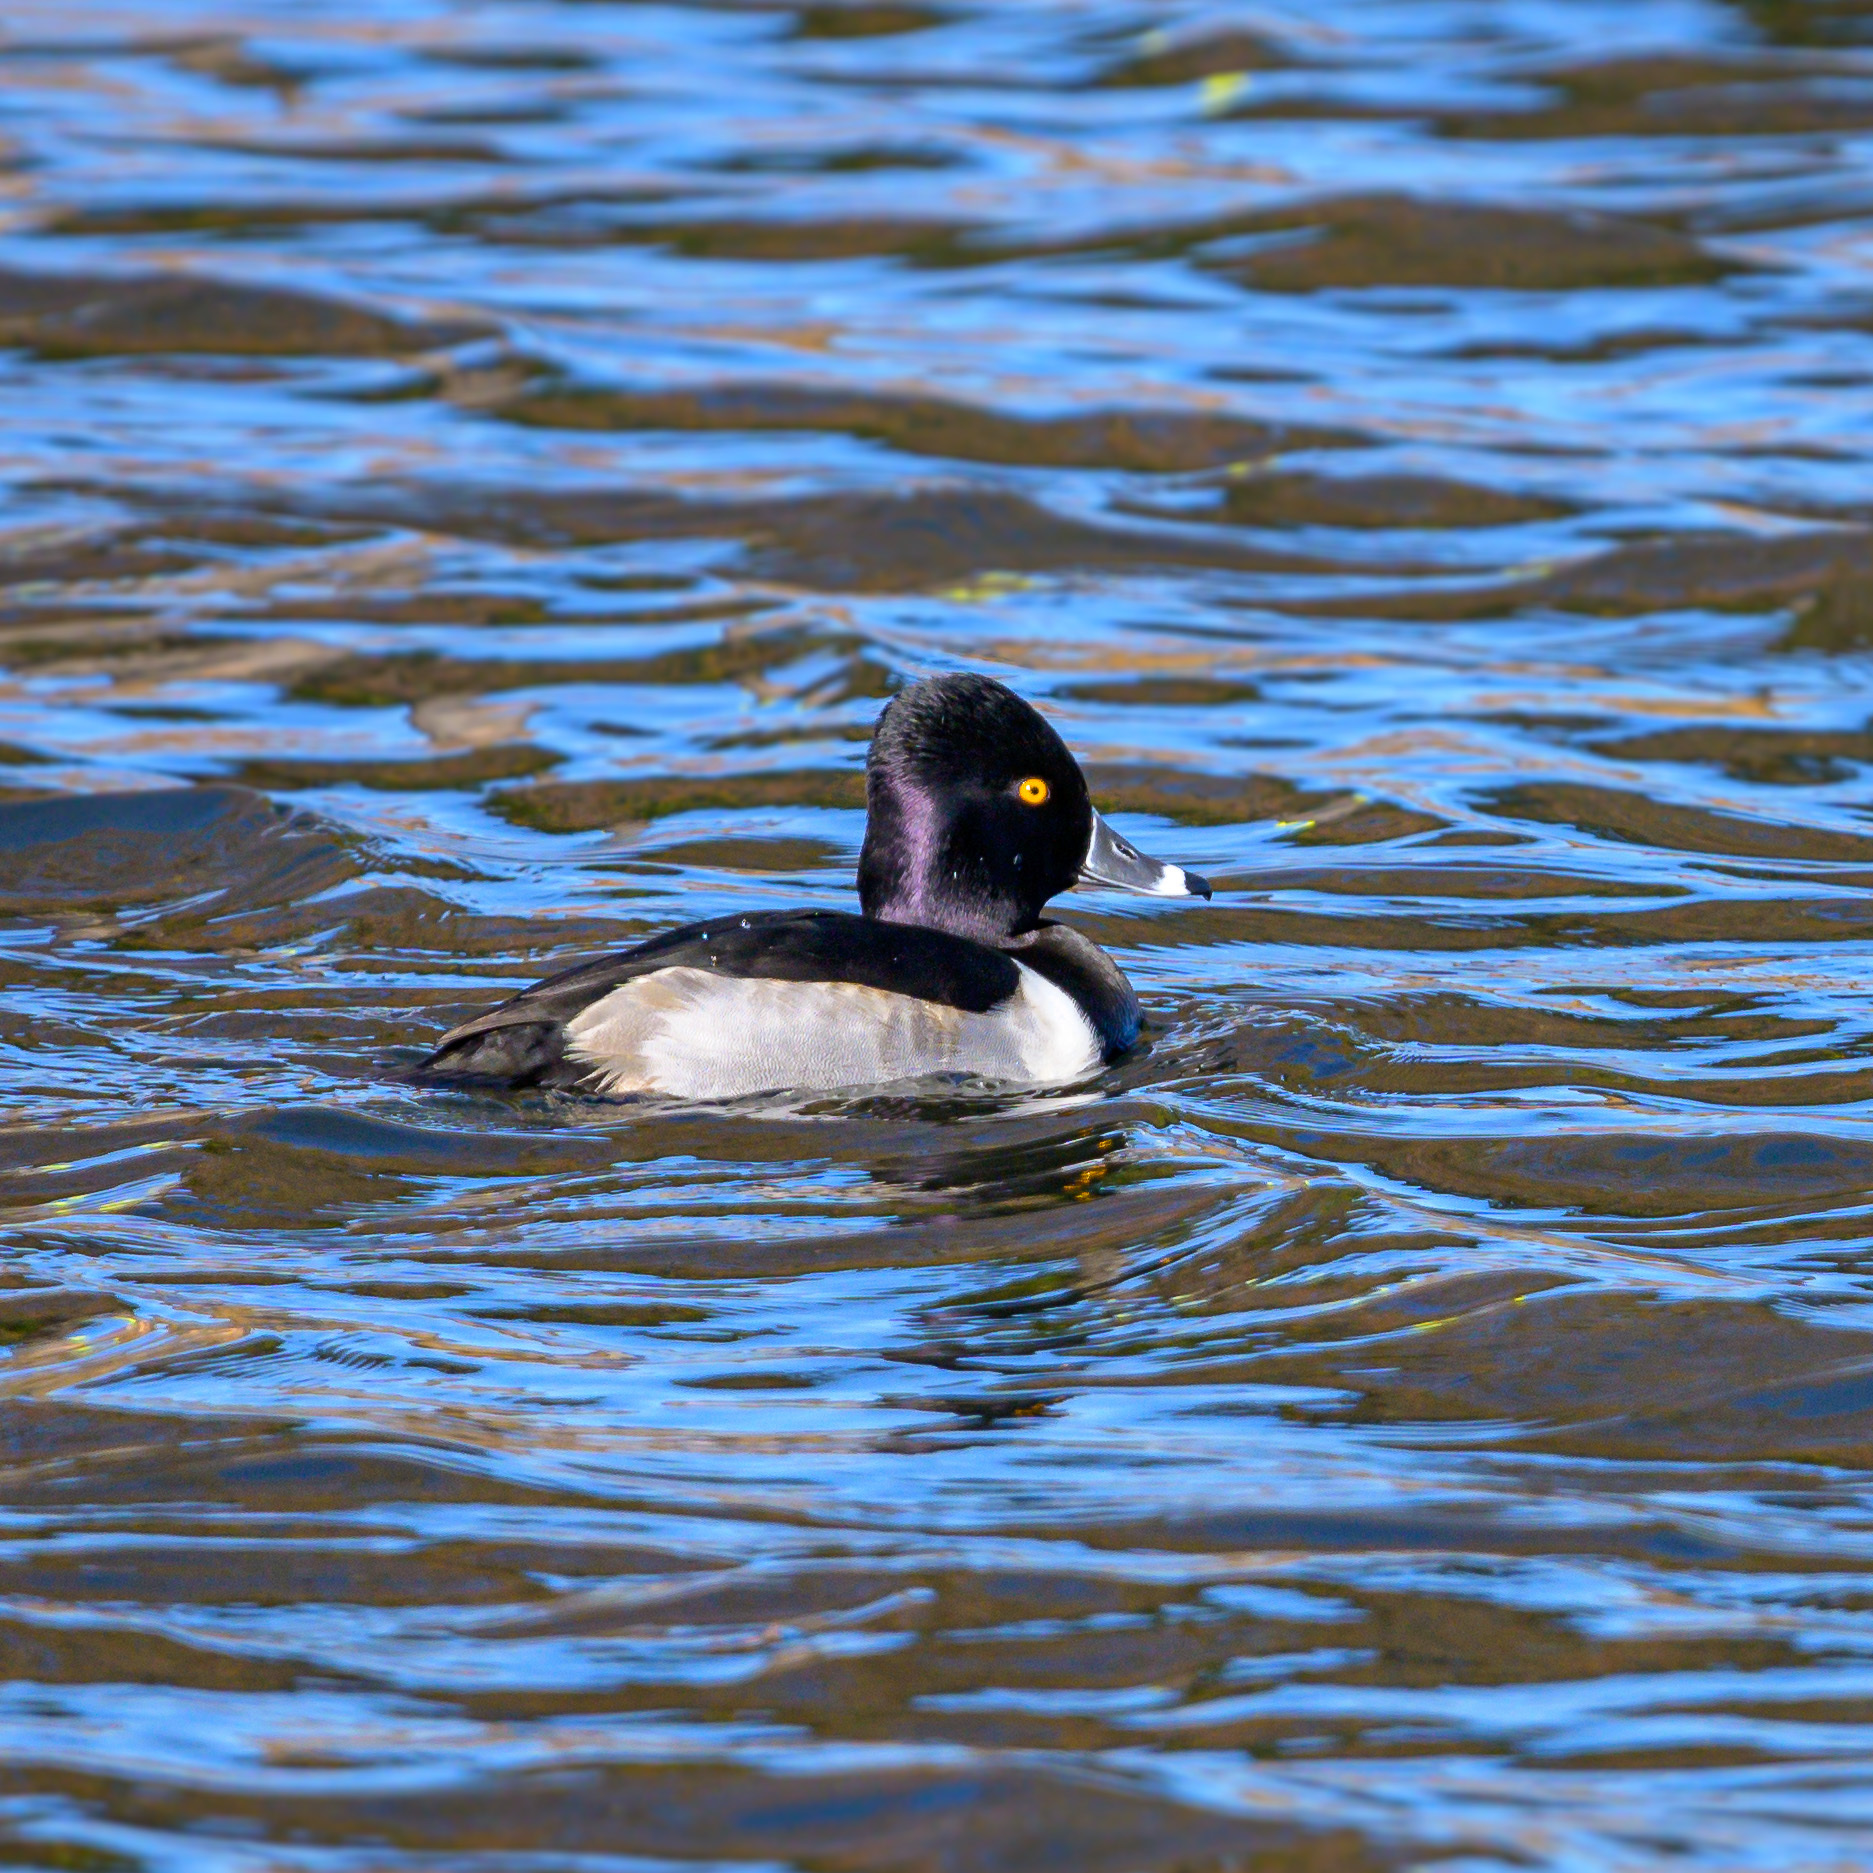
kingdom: Animalia
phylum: Chordata
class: Aves
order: Anseriformes
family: Anatidae
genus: Aythya
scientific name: Aythya collaris
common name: Ring-necked duck
